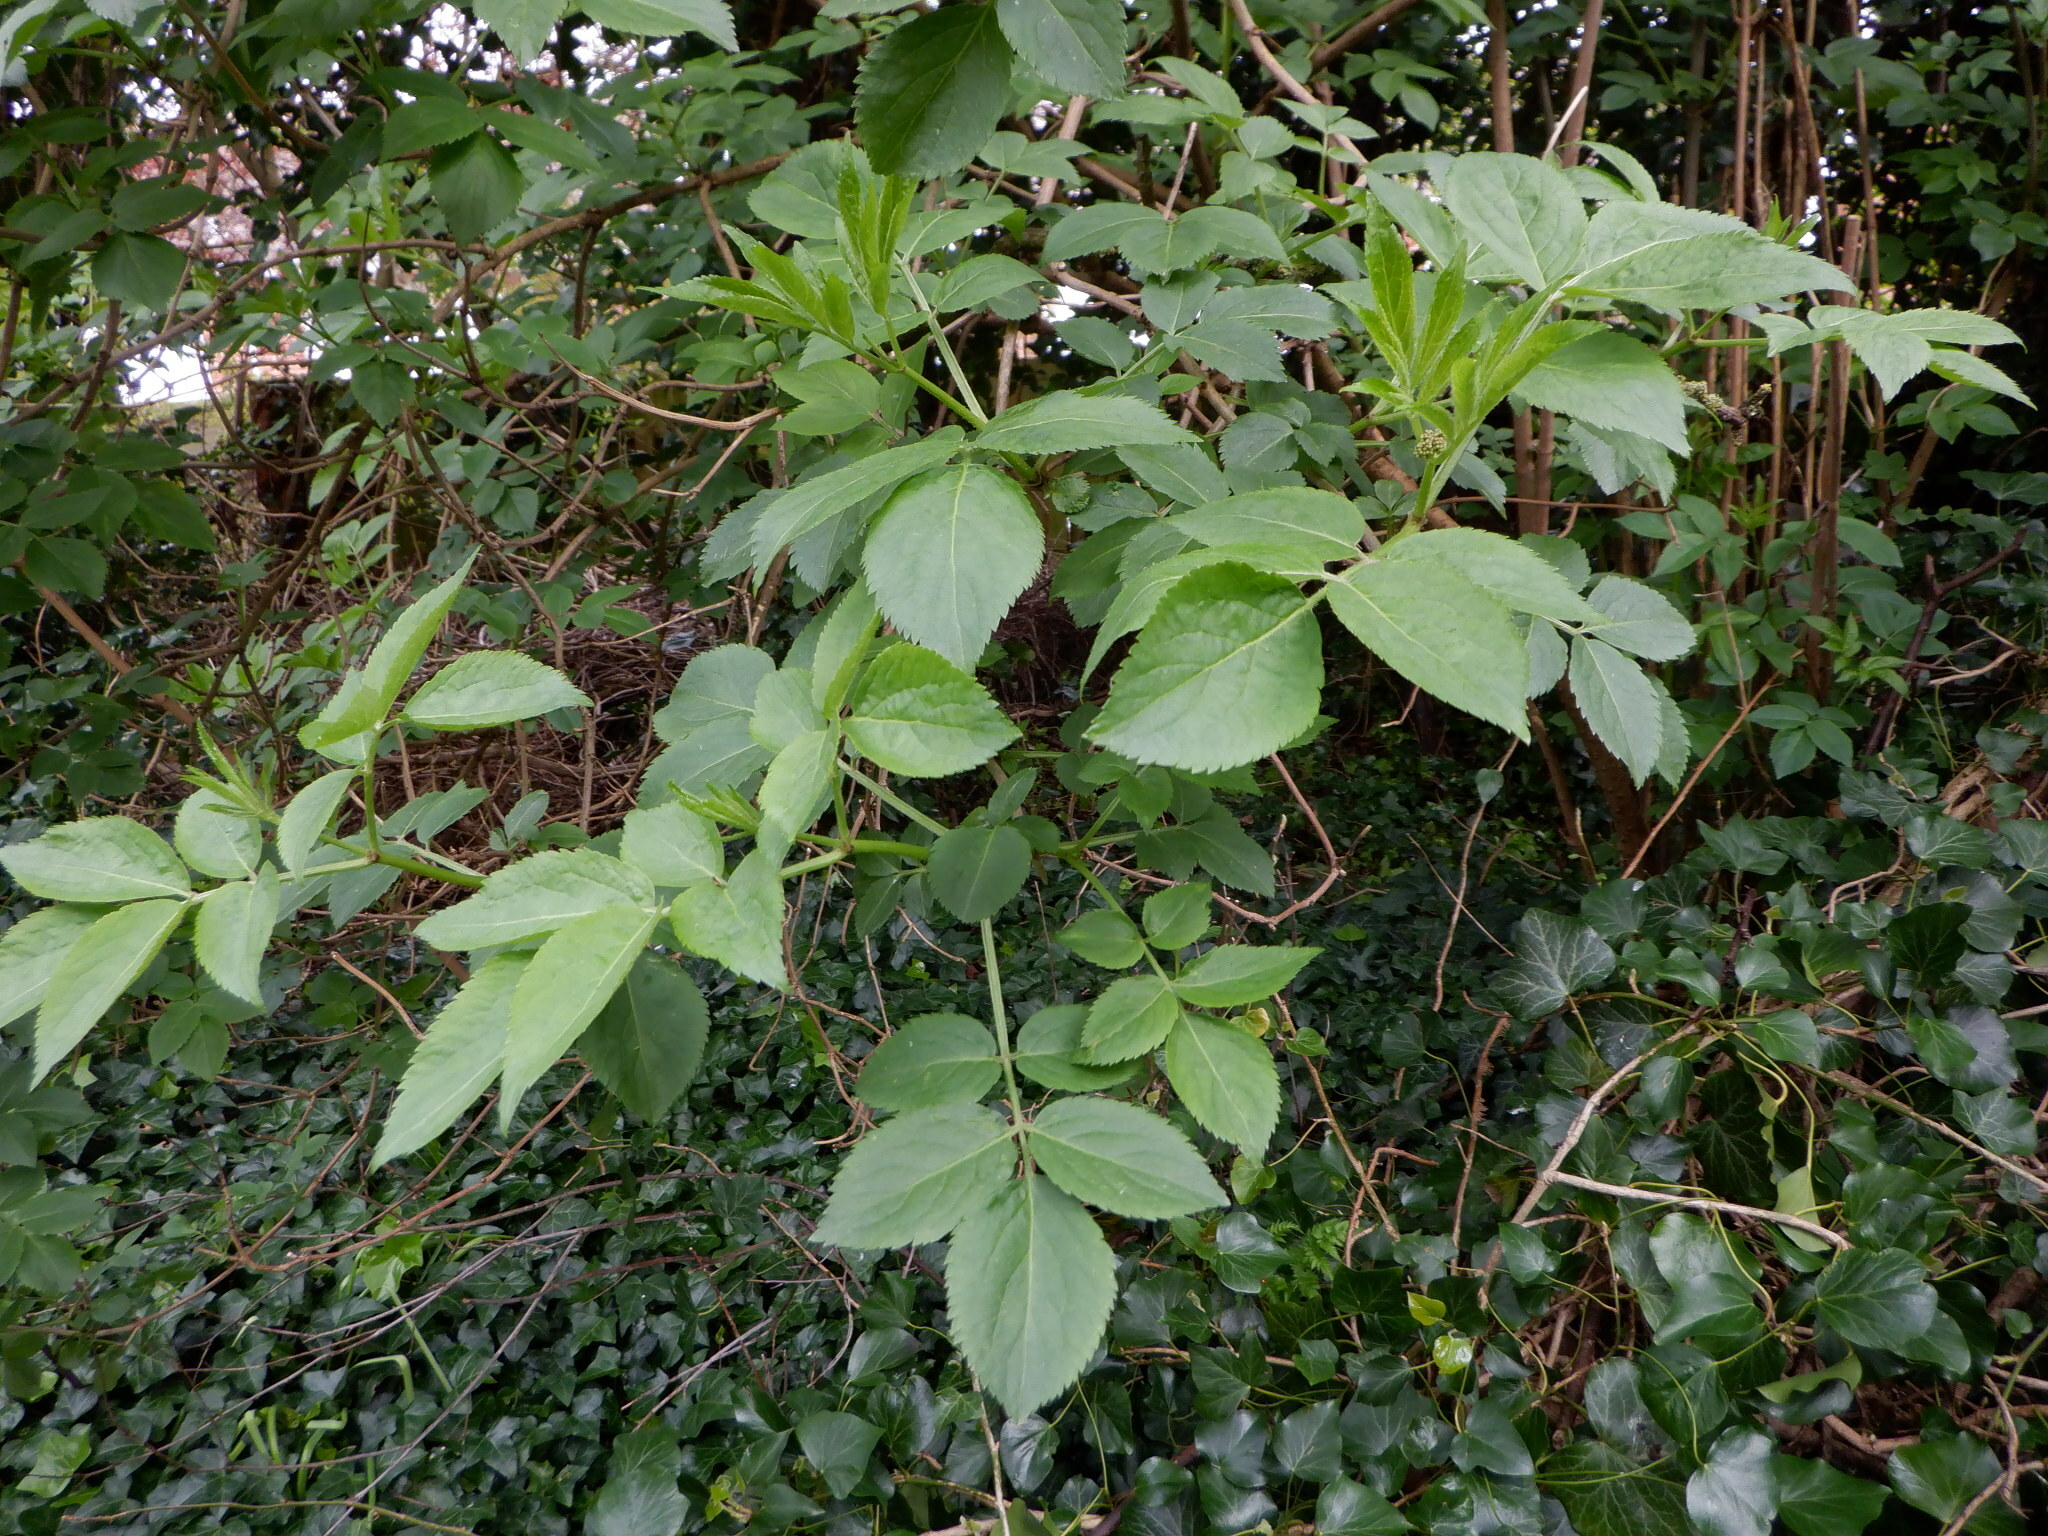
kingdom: Plantae
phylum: Tracheophyta
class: Magnoliopsida
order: Dipsacales
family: Viburnaceae
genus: Sambucus
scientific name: Sambucus nigra
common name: Elder
